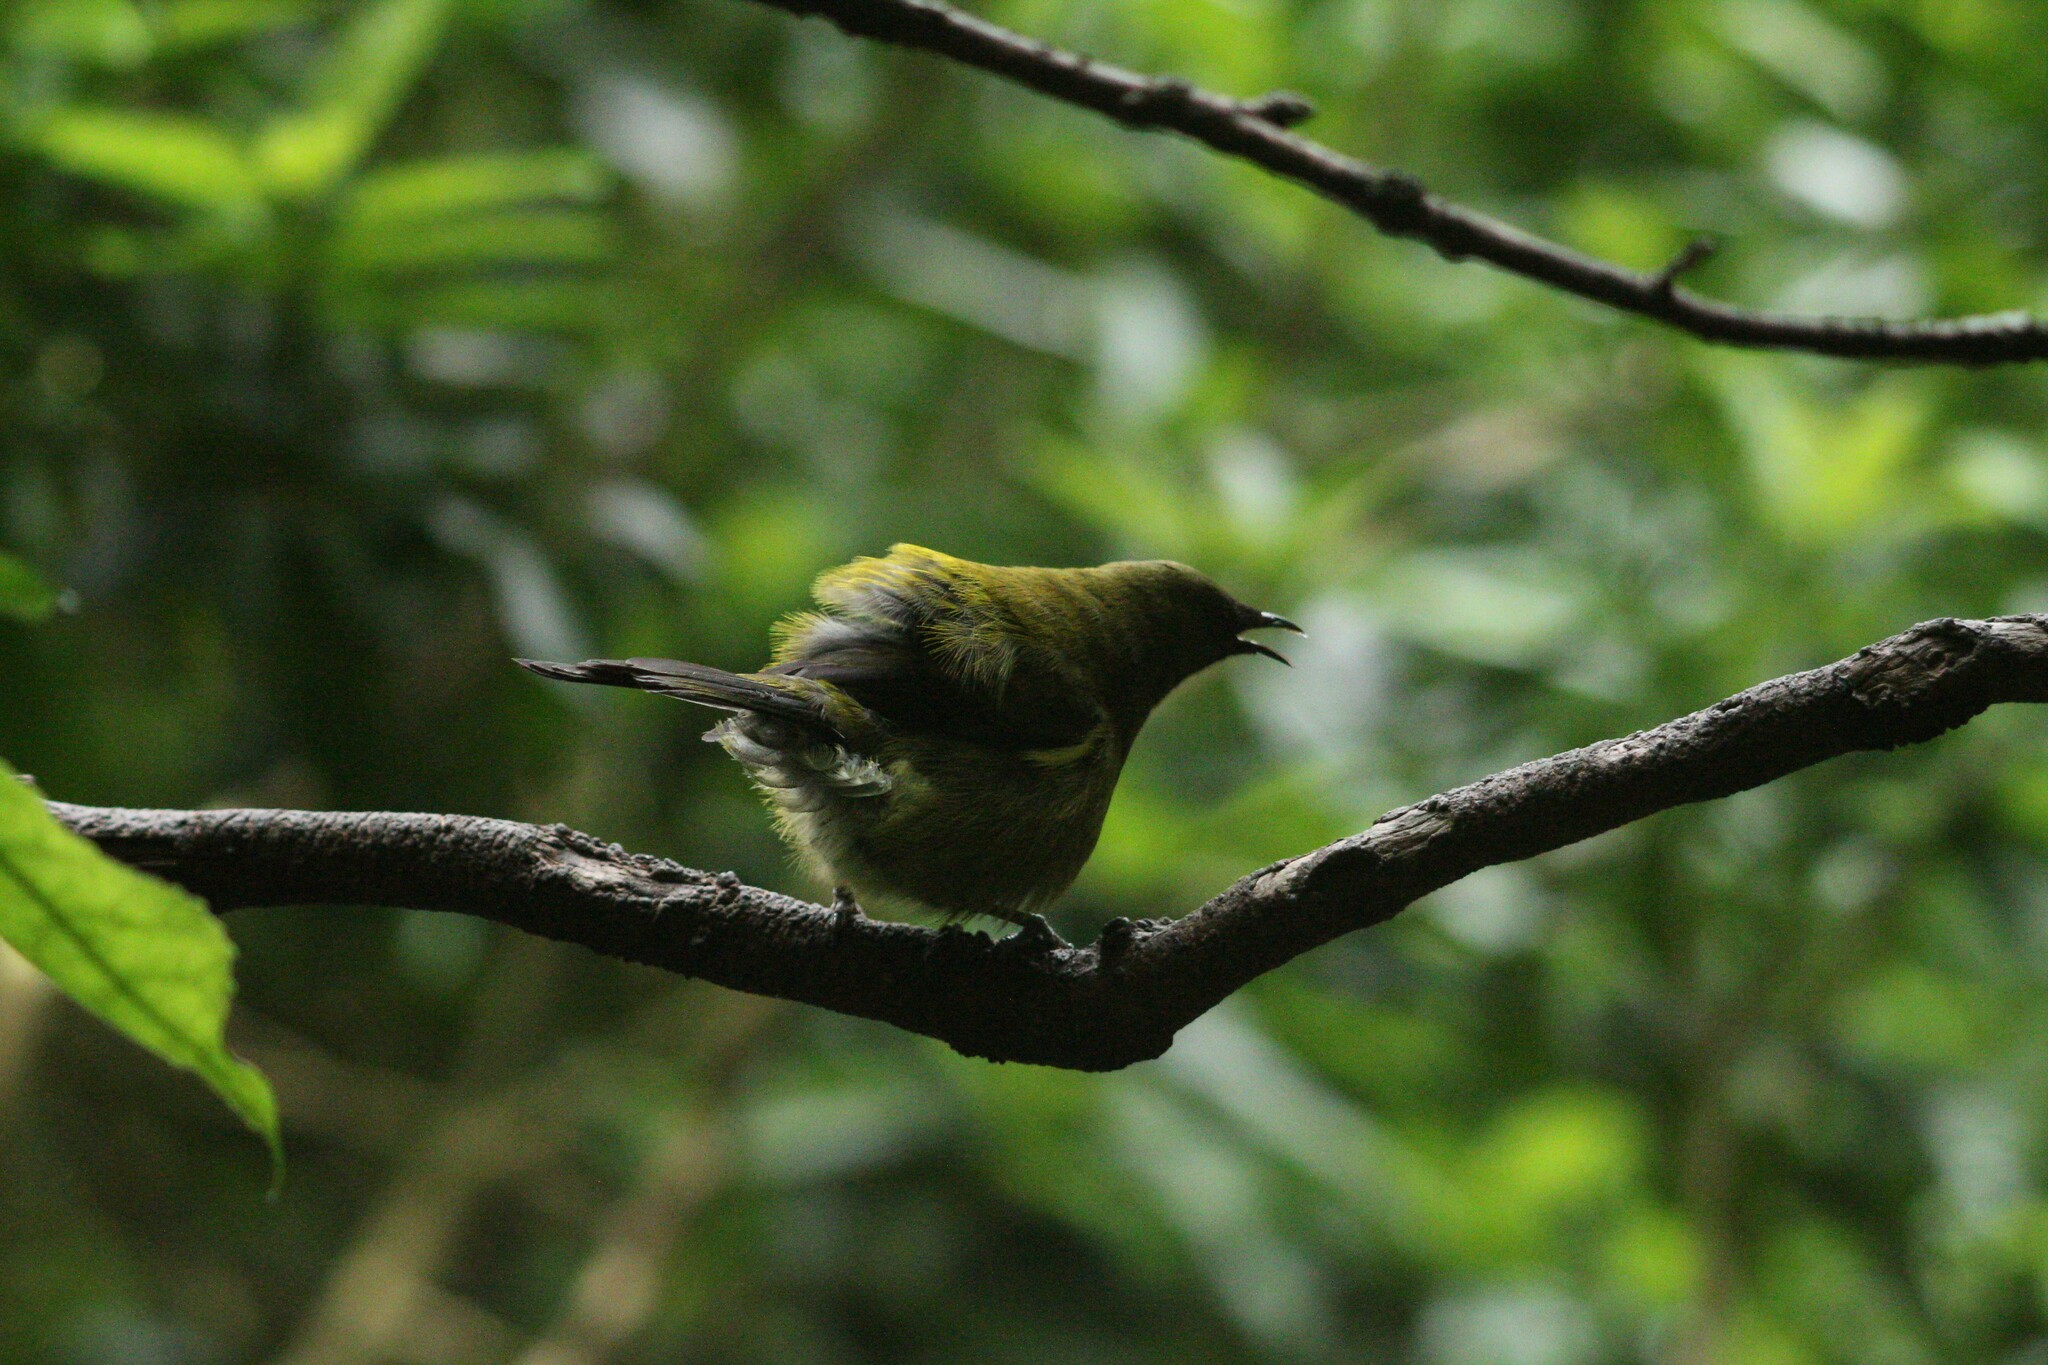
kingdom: Animalia
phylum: Chordata
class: Aves
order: Passeriformes
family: Meliphagidae
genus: Anthornis
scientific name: Anthornis melanura
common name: New zealand bellbird
